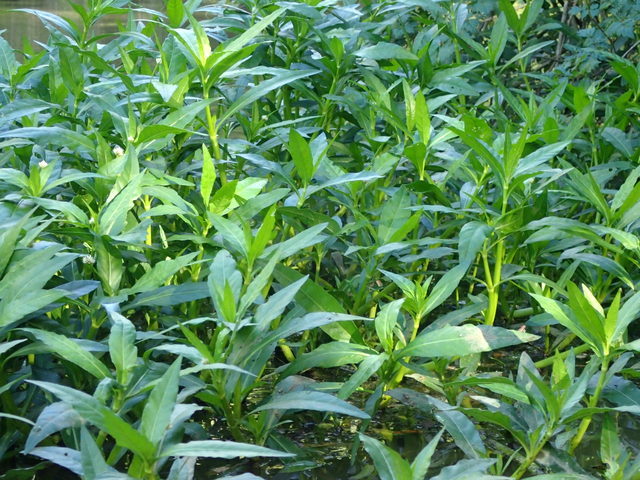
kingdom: Plantae
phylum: Tracheophyta
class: Magnoliopsida
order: Caryophyllales
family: Amaranthaceae
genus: Alternanthera
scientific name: Alternanthera philoxeroides
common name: Alligatorweed
